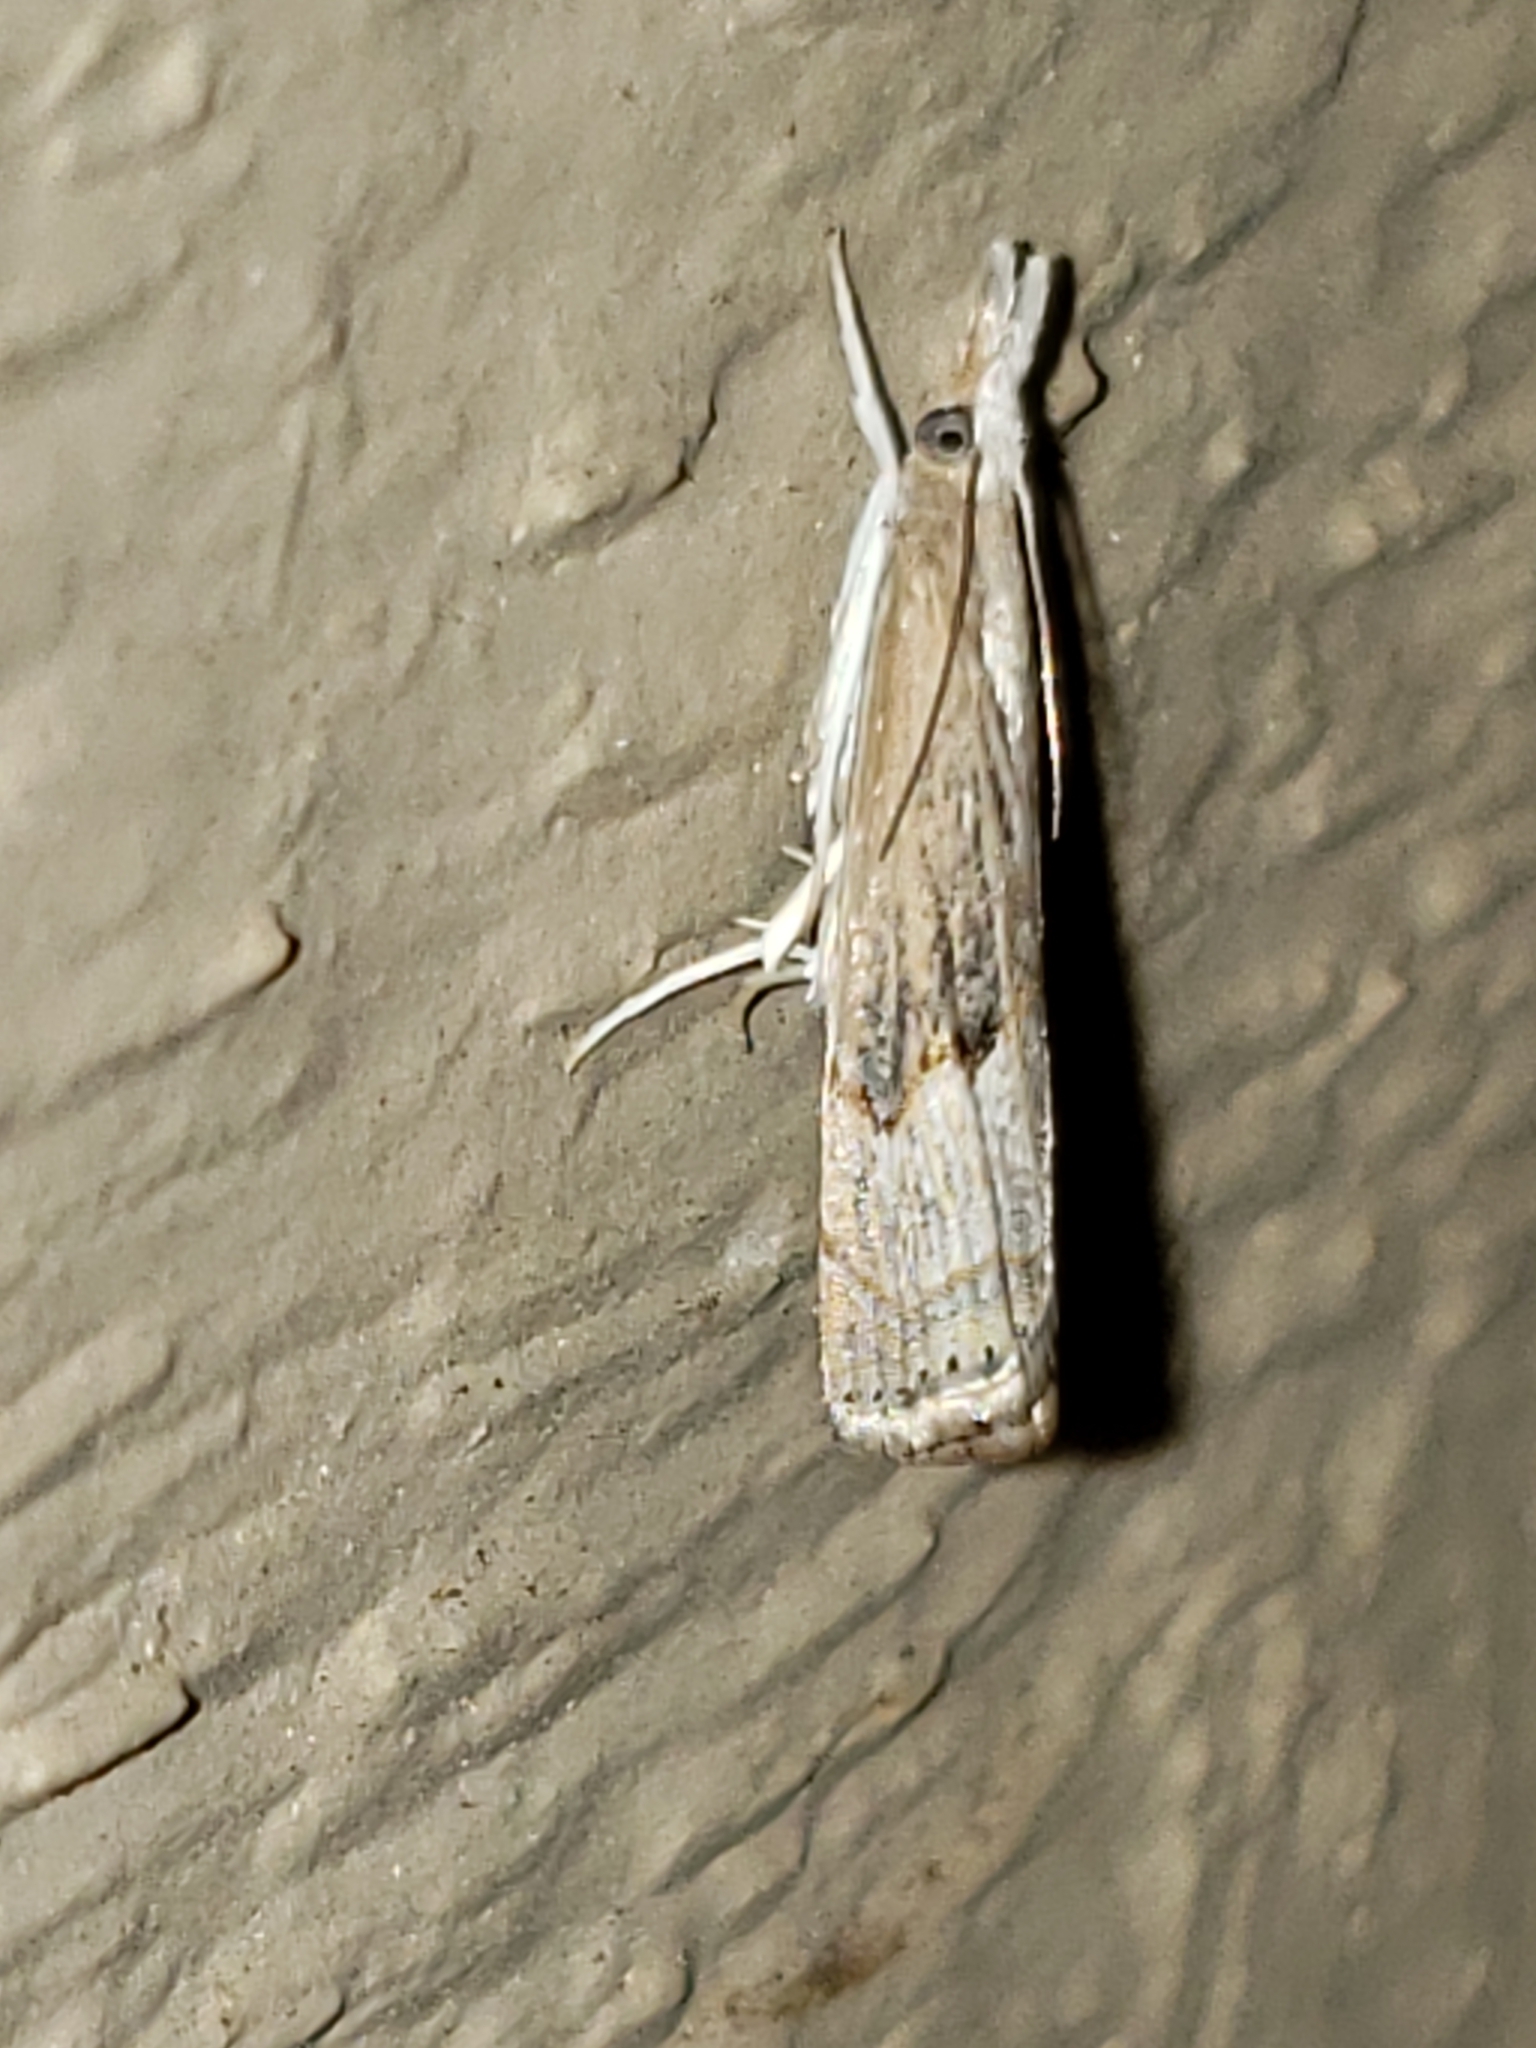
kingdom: Animalia
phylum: Arthropoda
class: Insecta
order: Lepidoptera
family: Crambidae
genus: Parapediasia
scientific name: Parapediasia teterellus
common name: Bluegrass webworm moth
